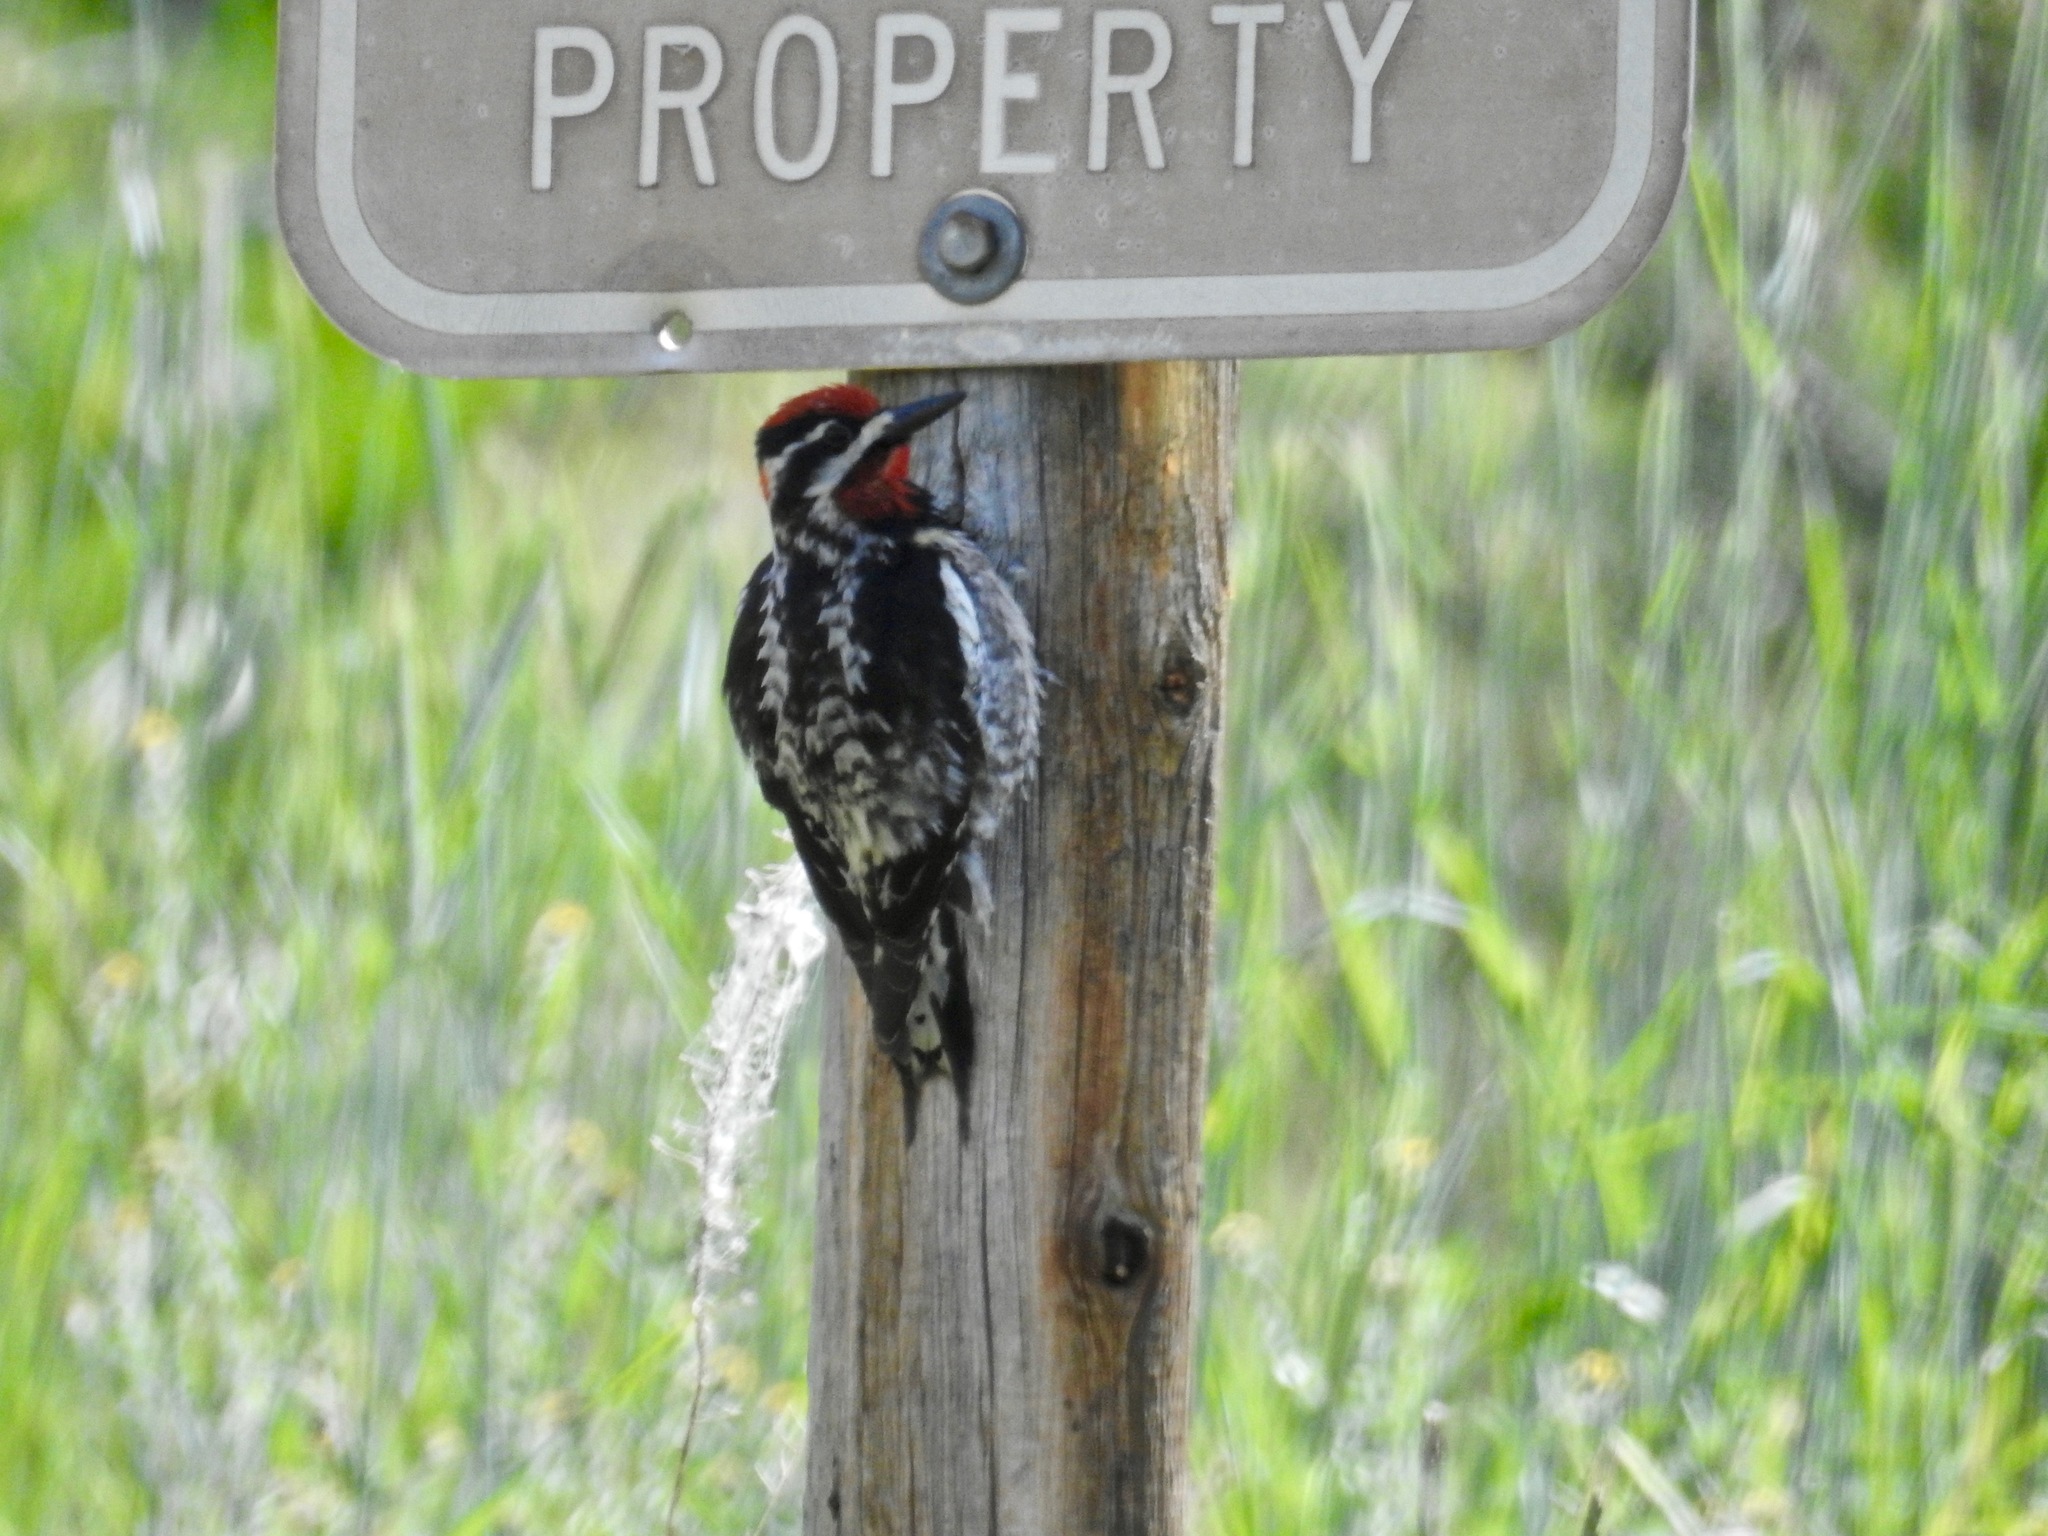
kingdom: Animalia
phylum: Chordata
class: Aves
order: Piciformes
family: Picidae
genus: Sphyrapicus
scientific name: Sphyrapicus nuchalis
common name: Red-naped sapsucker
